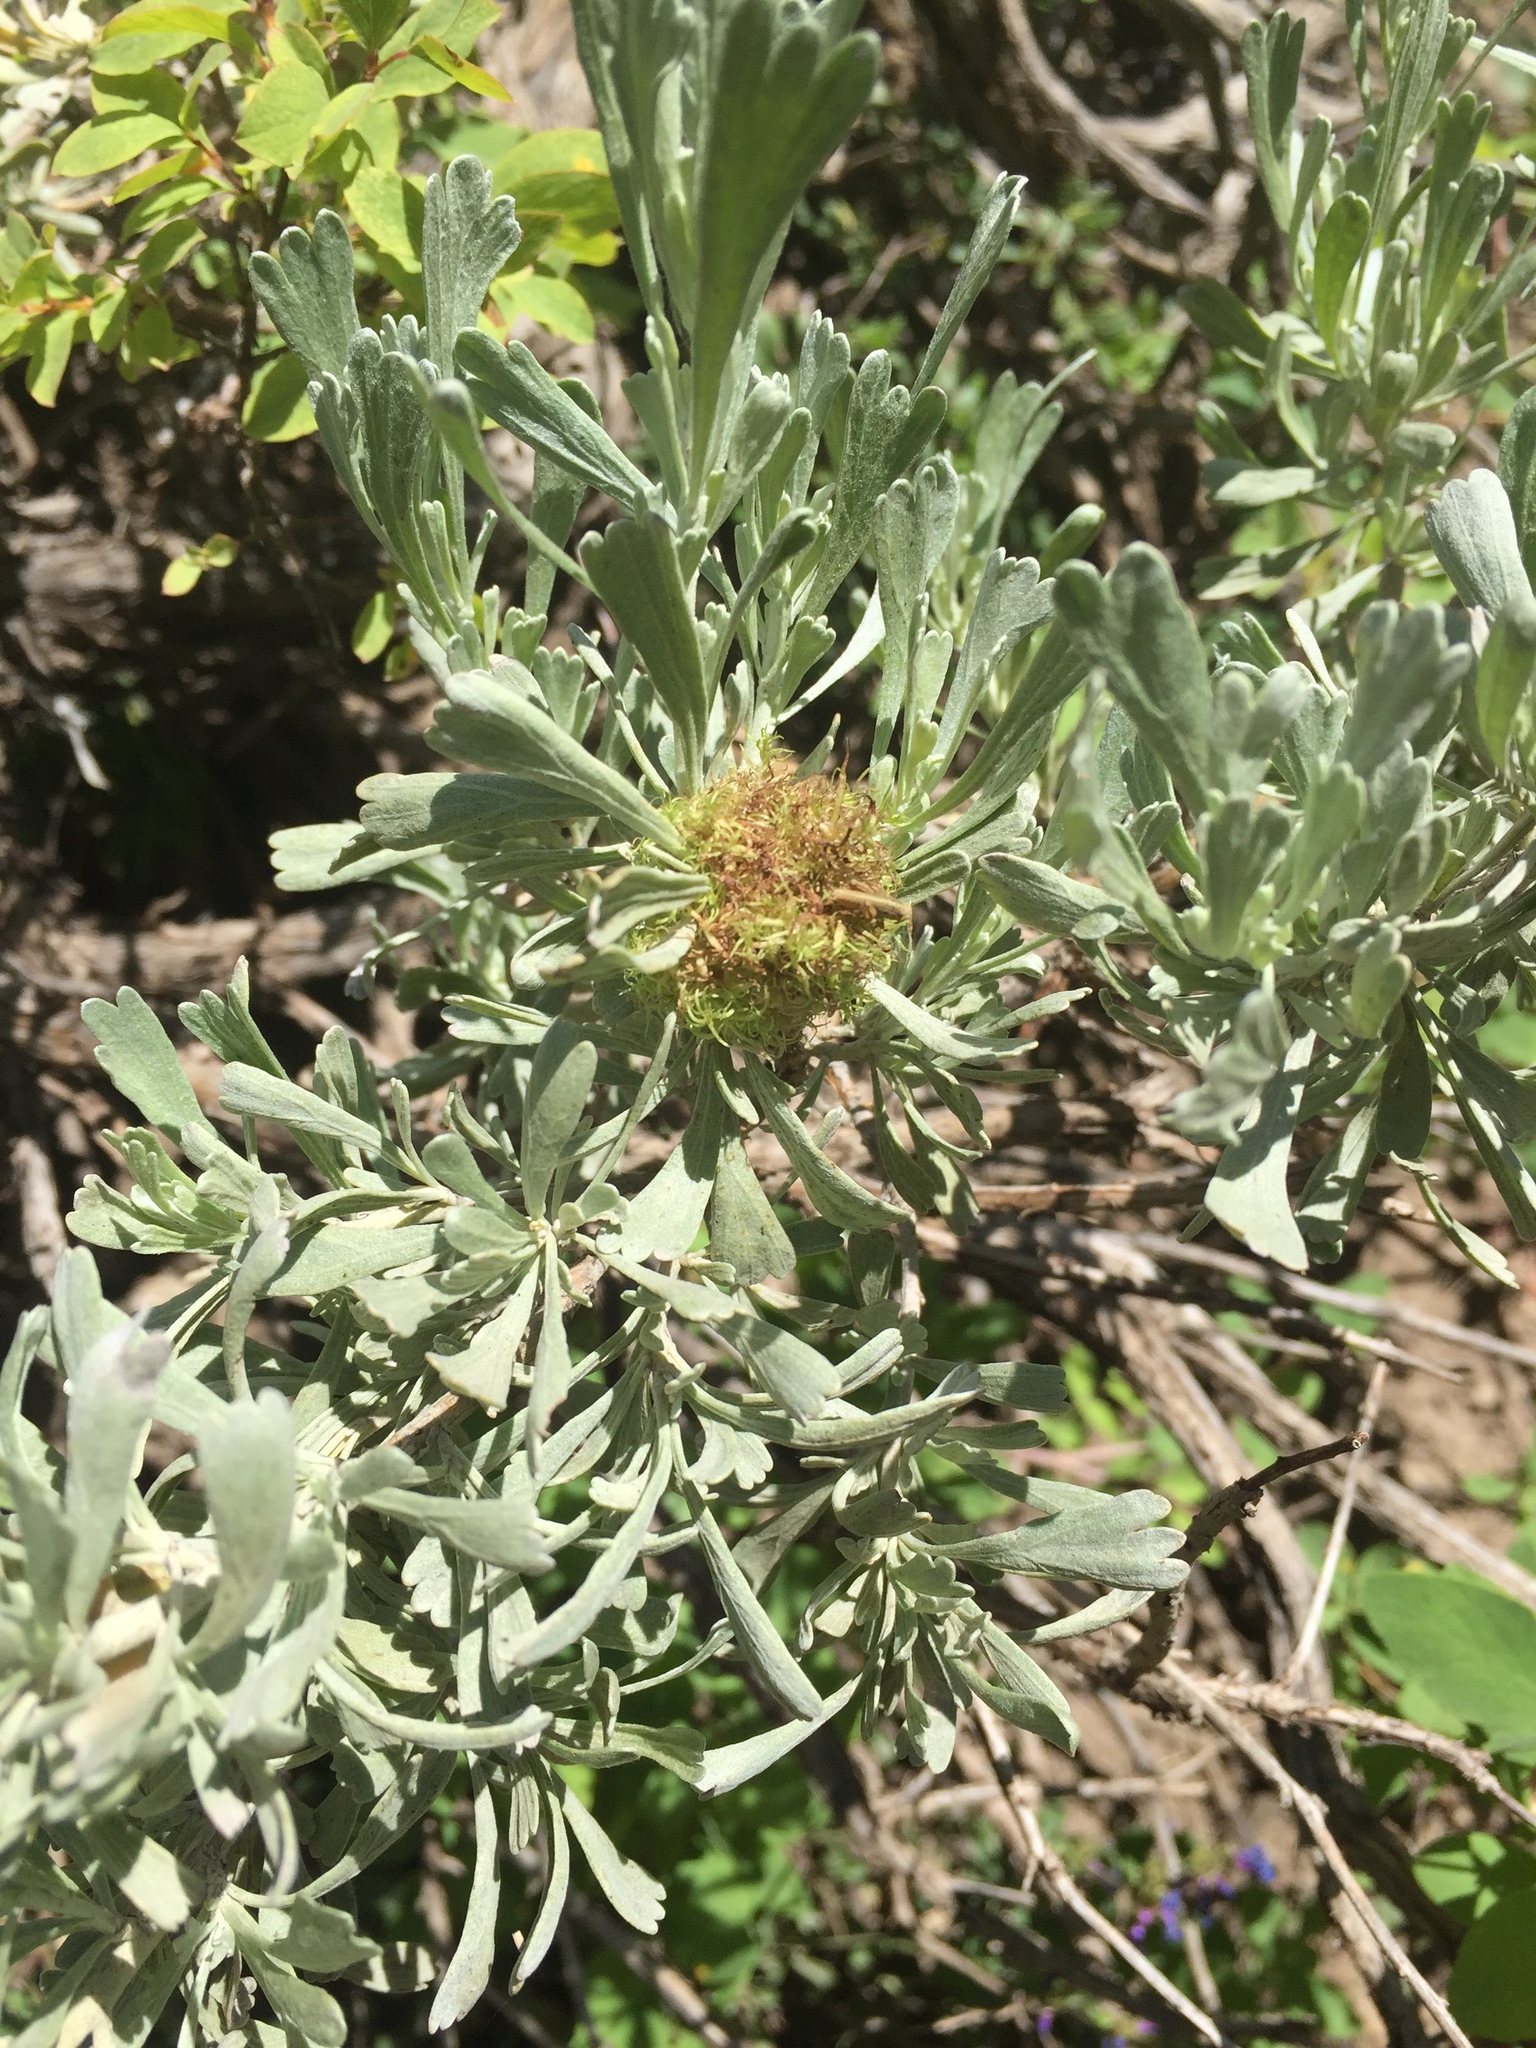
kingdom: Animalia
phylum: Arthropoda
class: Insecta
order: Diptera
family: Cecidomyiidae
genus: Rhopalomyia
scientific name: Rhopalomyia medusa
